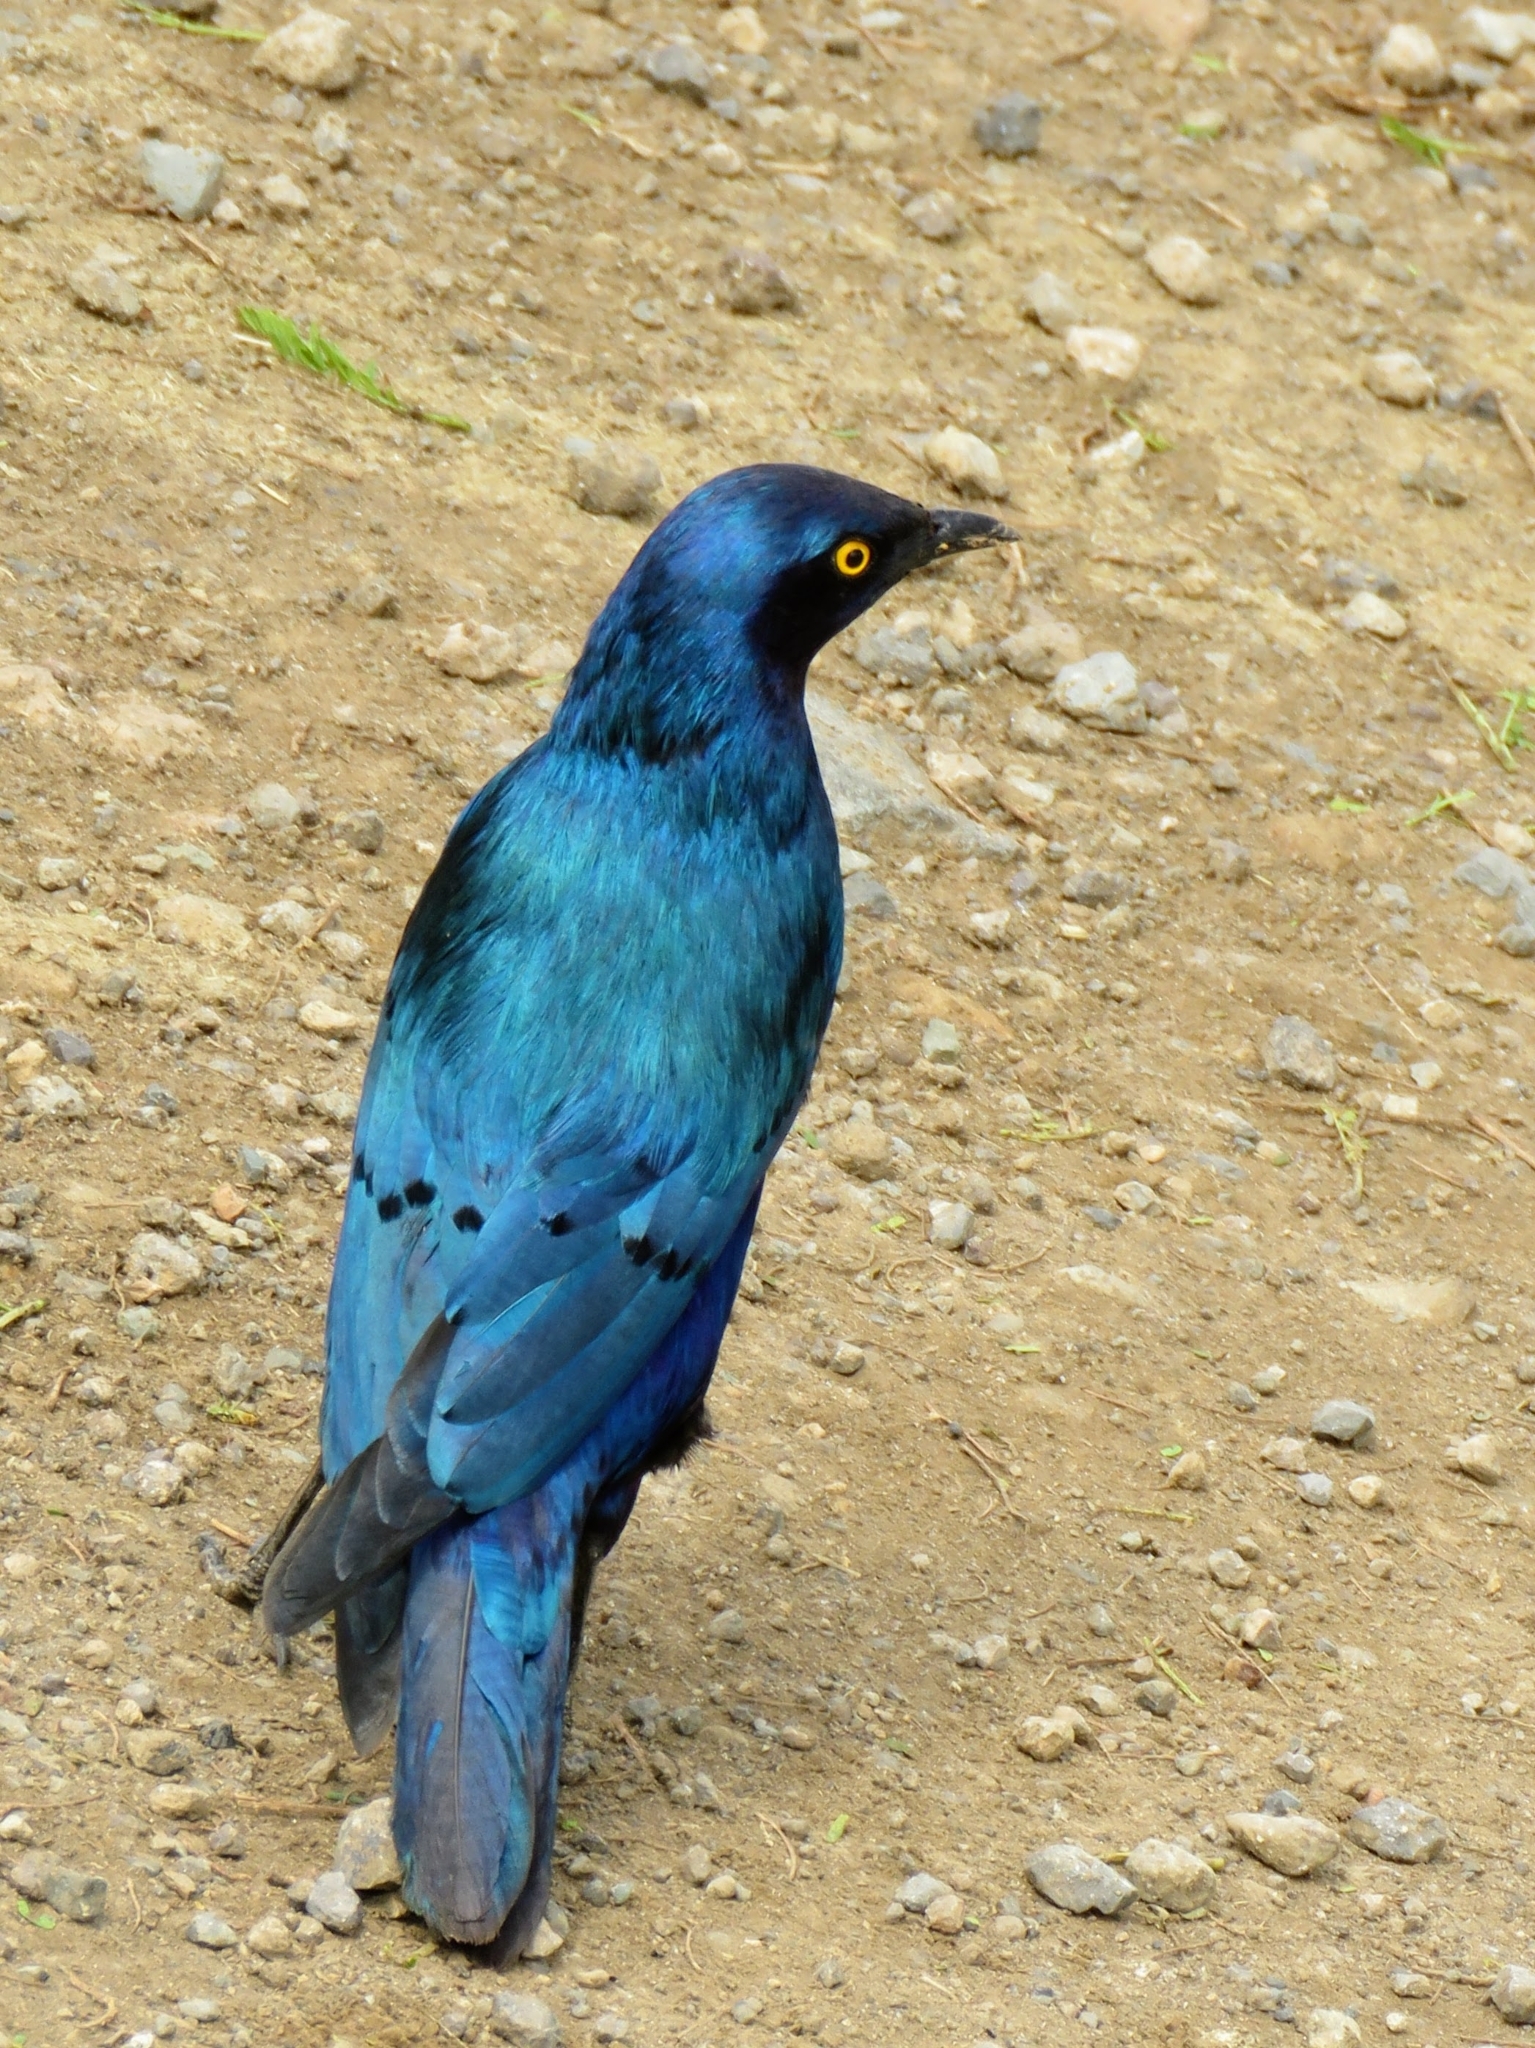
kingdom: Animalia
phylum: Chordata
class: Aves
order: Passeriformes
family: Sturnidae
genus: Lamprotornis
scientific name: Lamprotornis chalybaeus
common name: Greater blue-eared starling
